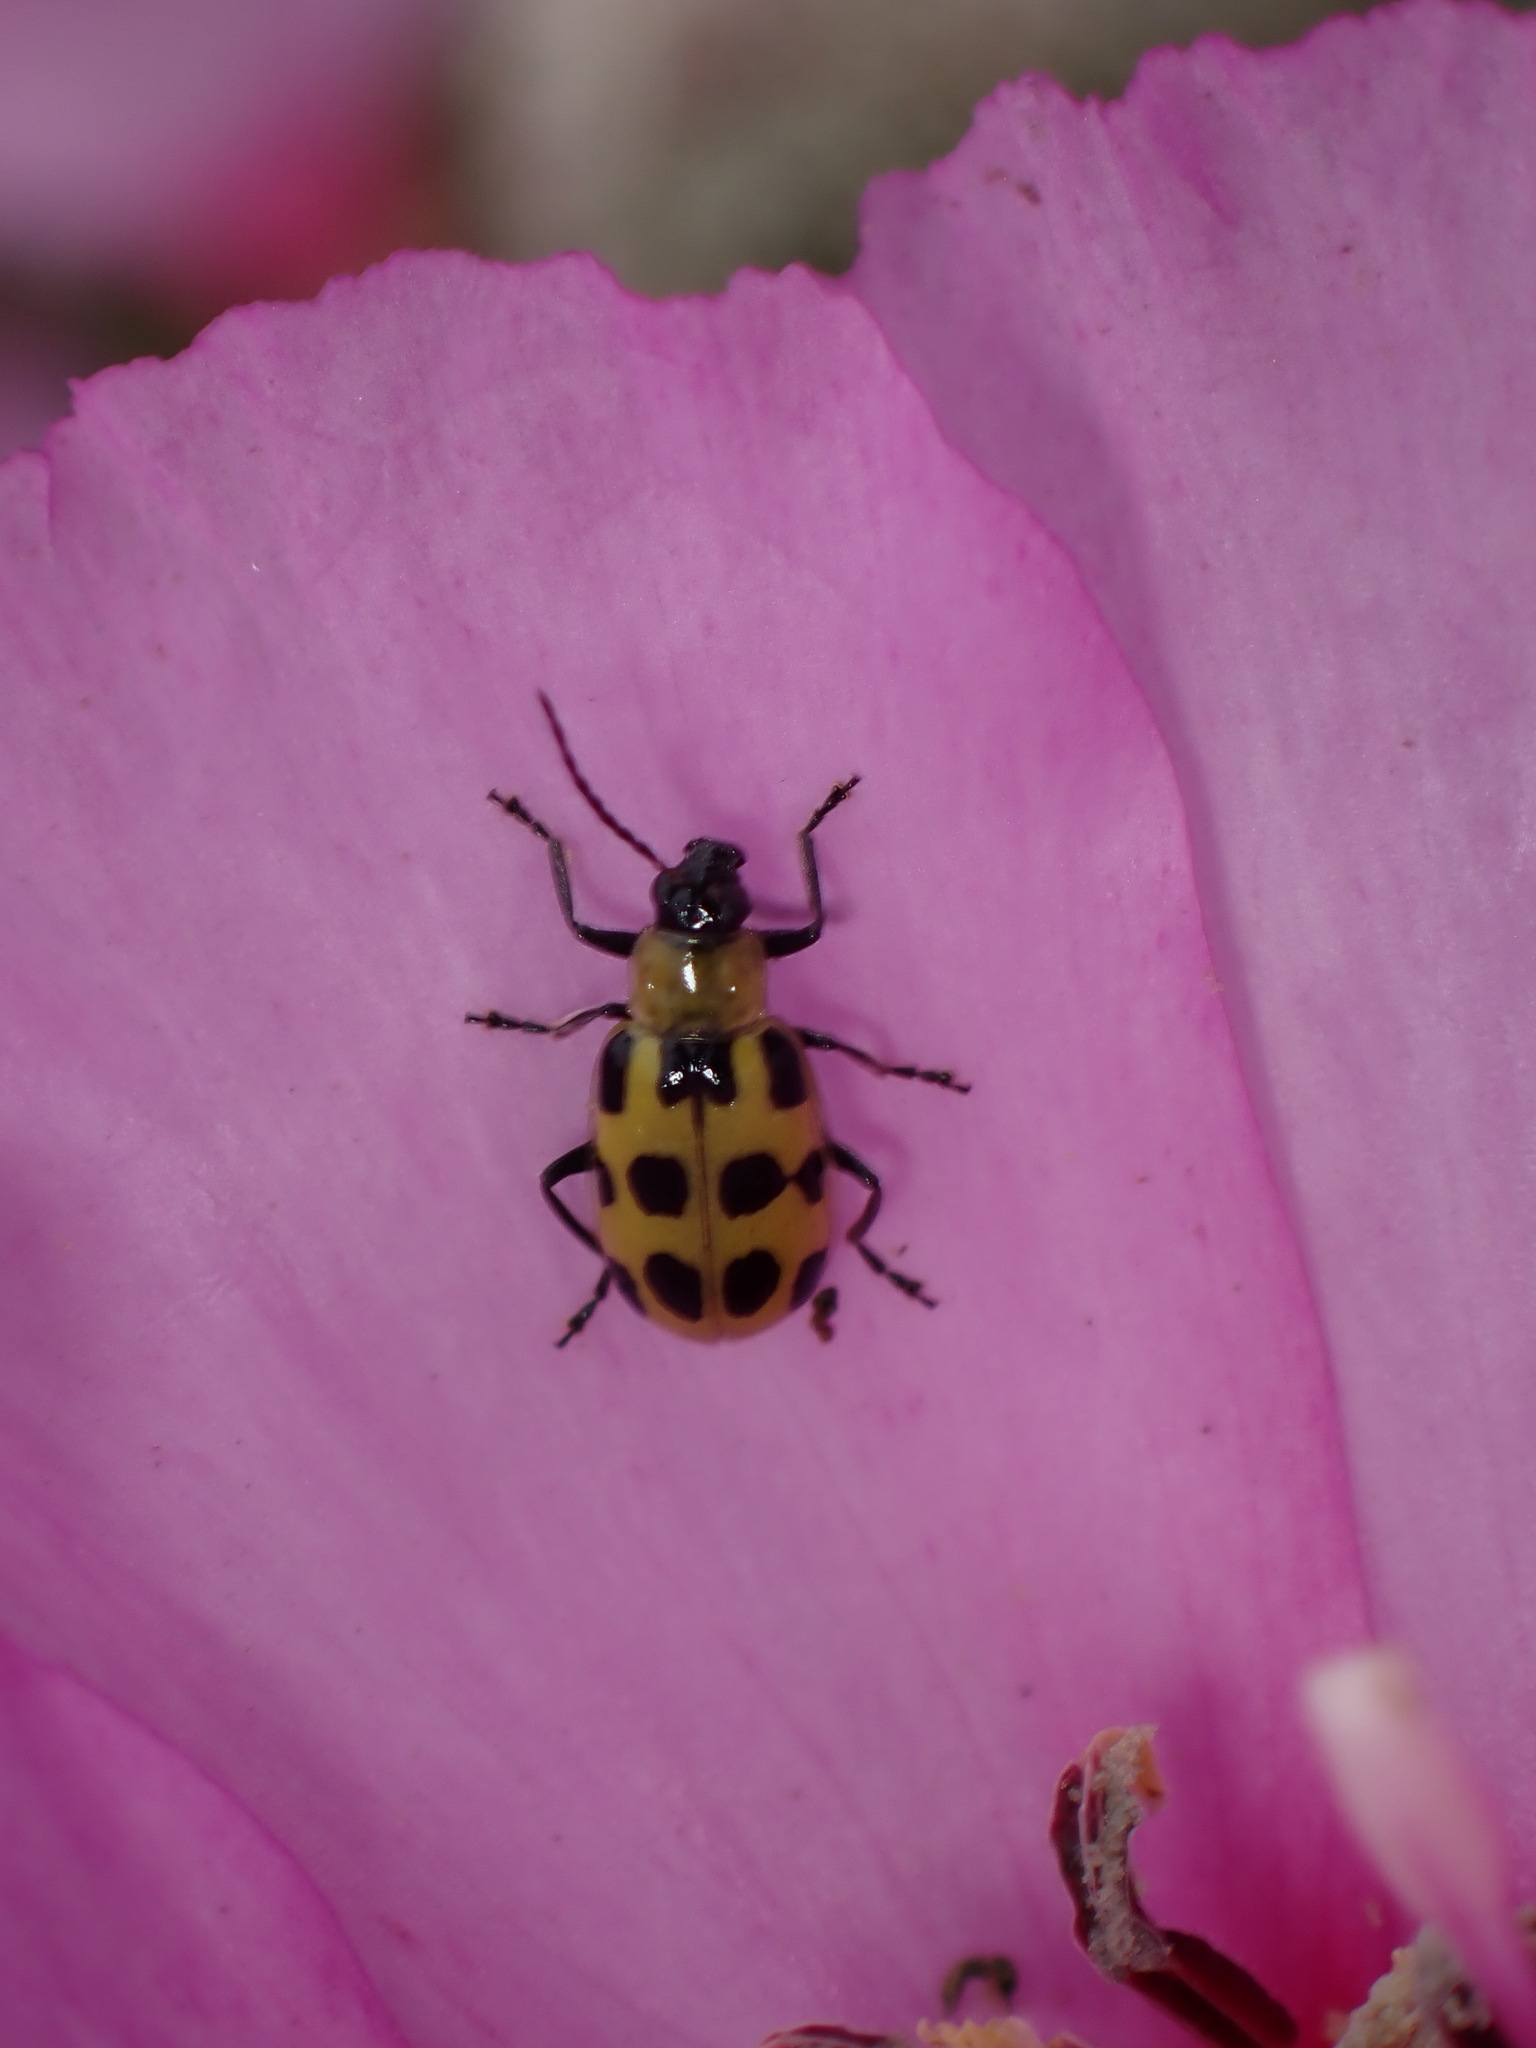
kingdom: Animalia
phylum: Arthropoda
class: Insecta
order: Coleoptera
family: Chrysomelidae
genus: Diabrotica
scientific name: Diabrotica undecimpunctata
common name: Spotted cucumber beetle
